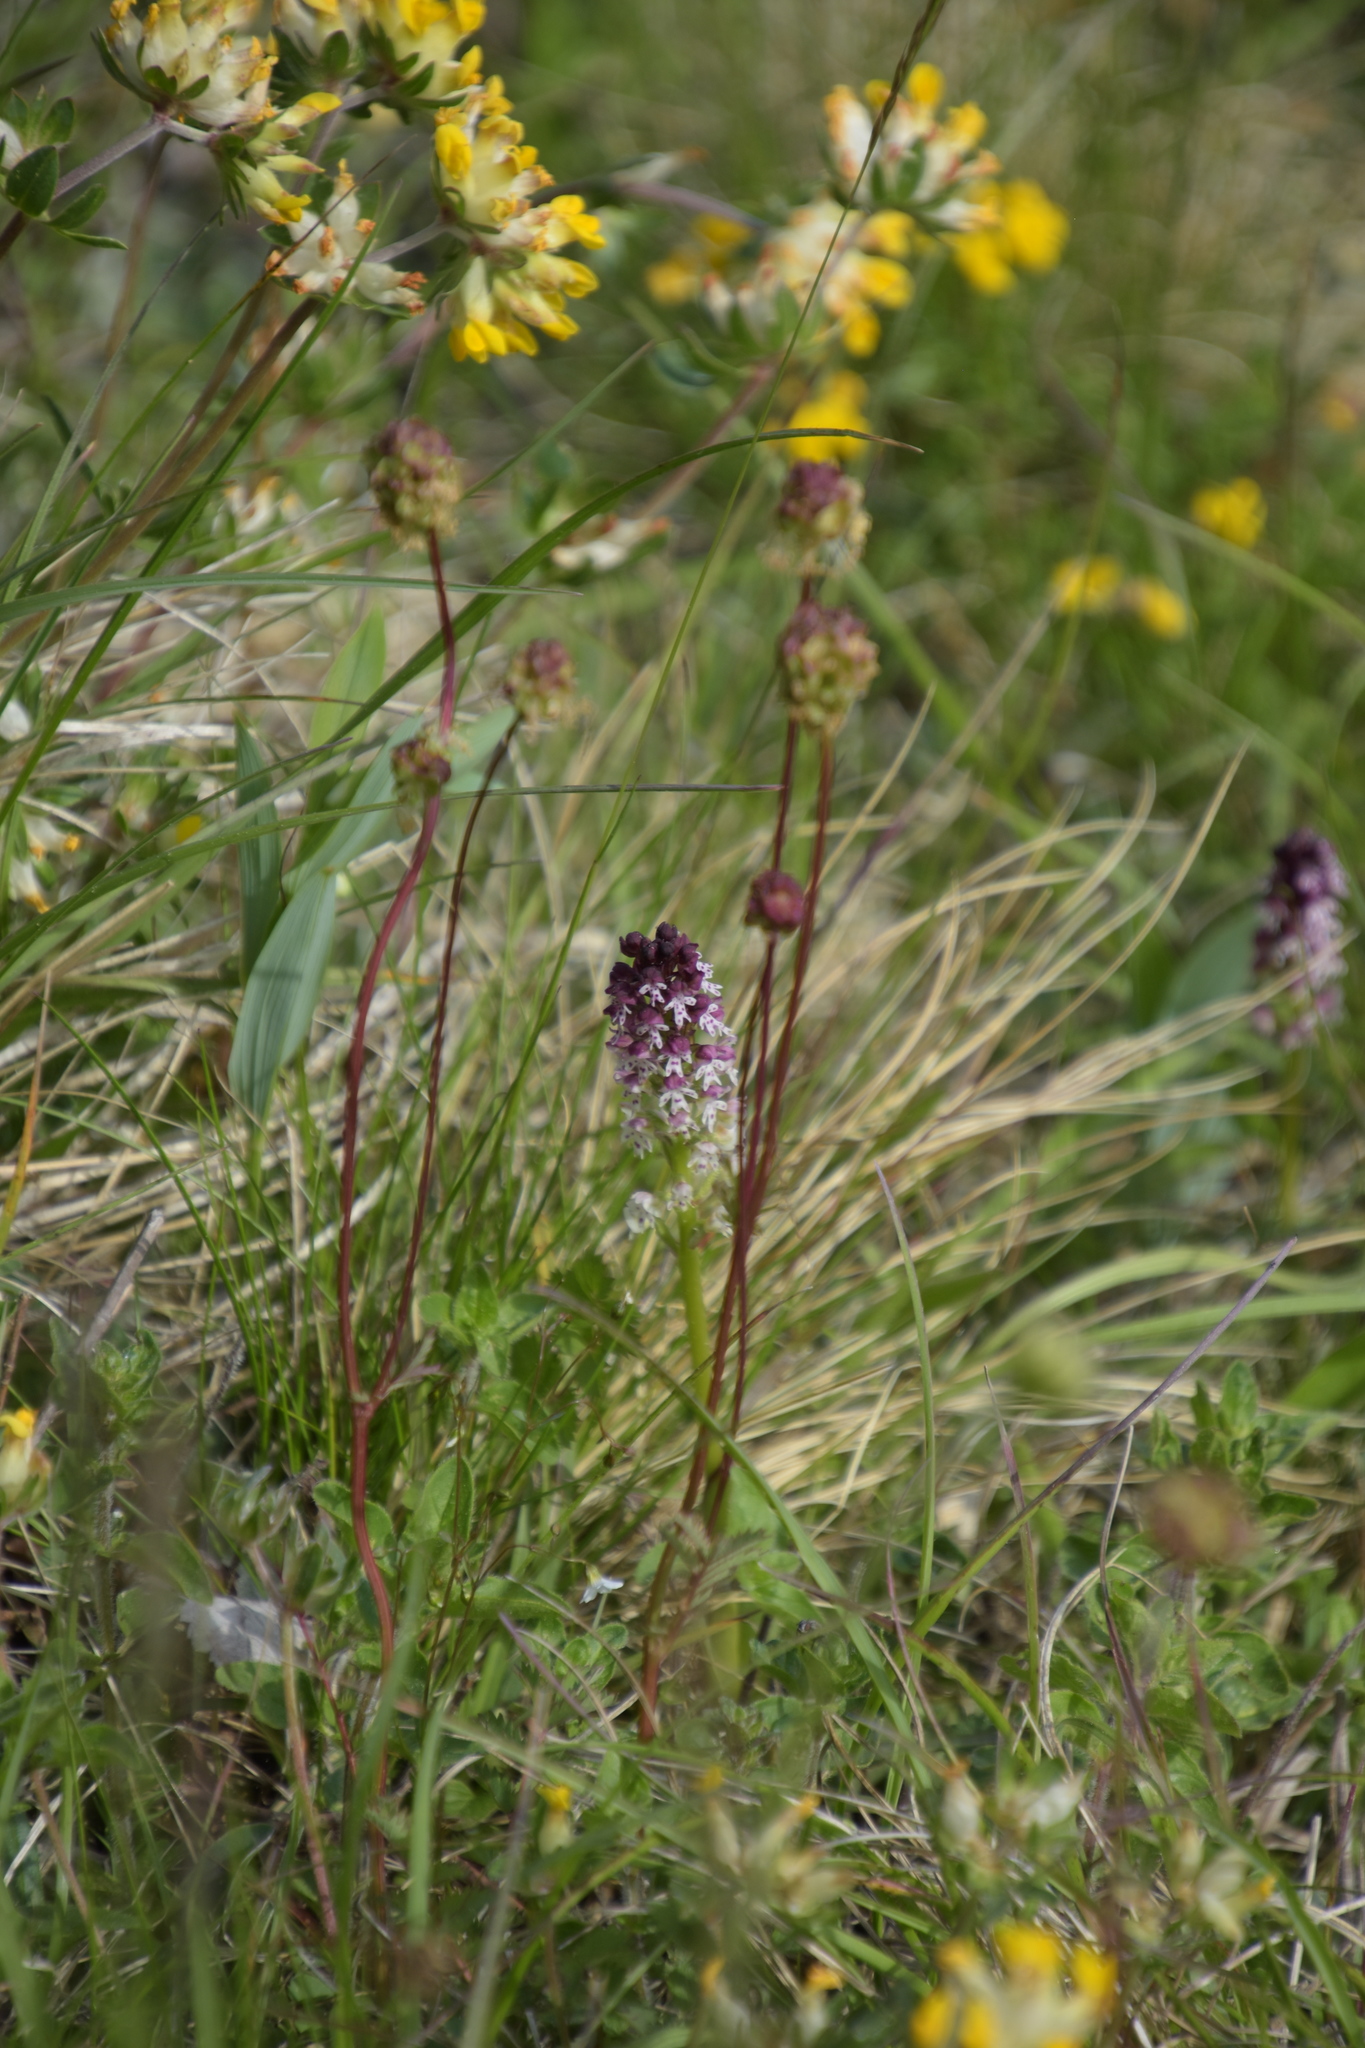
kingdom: Plantae
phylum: Tracheophyta
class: Liliopsida
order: Asparagales
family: Orchidaceae
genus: Neotinea
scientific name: Neotinea ustulata
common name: Burnt orchid
